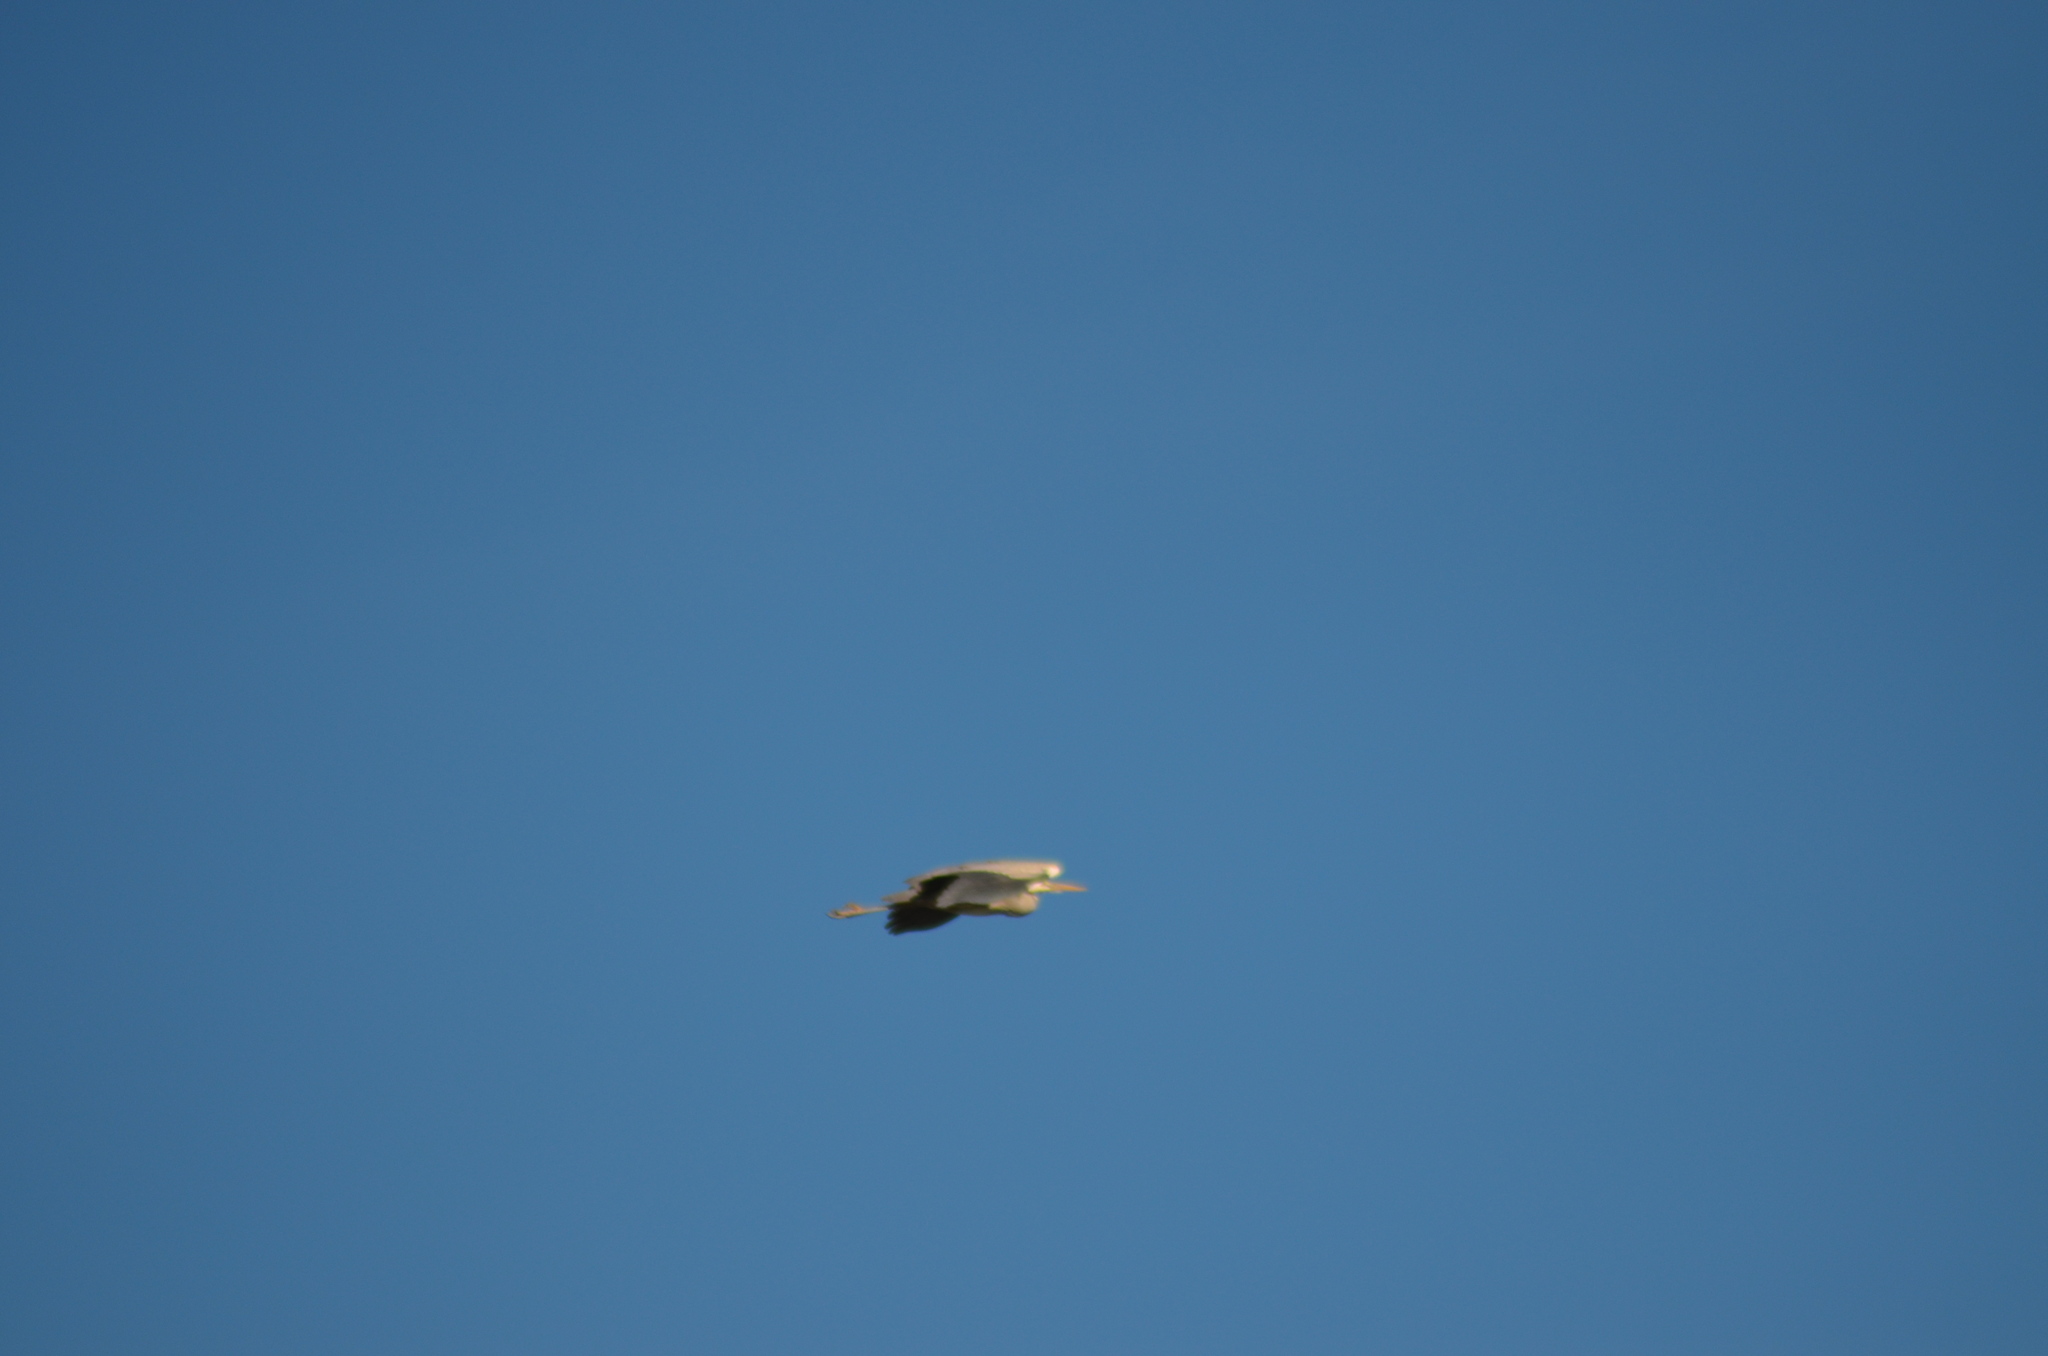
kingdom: Animalia
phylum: Chordata
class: Aves
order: Pelecaniformes
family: Ardeidae
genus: Ardea
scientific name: Ardea cinerea
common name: Grey heron
